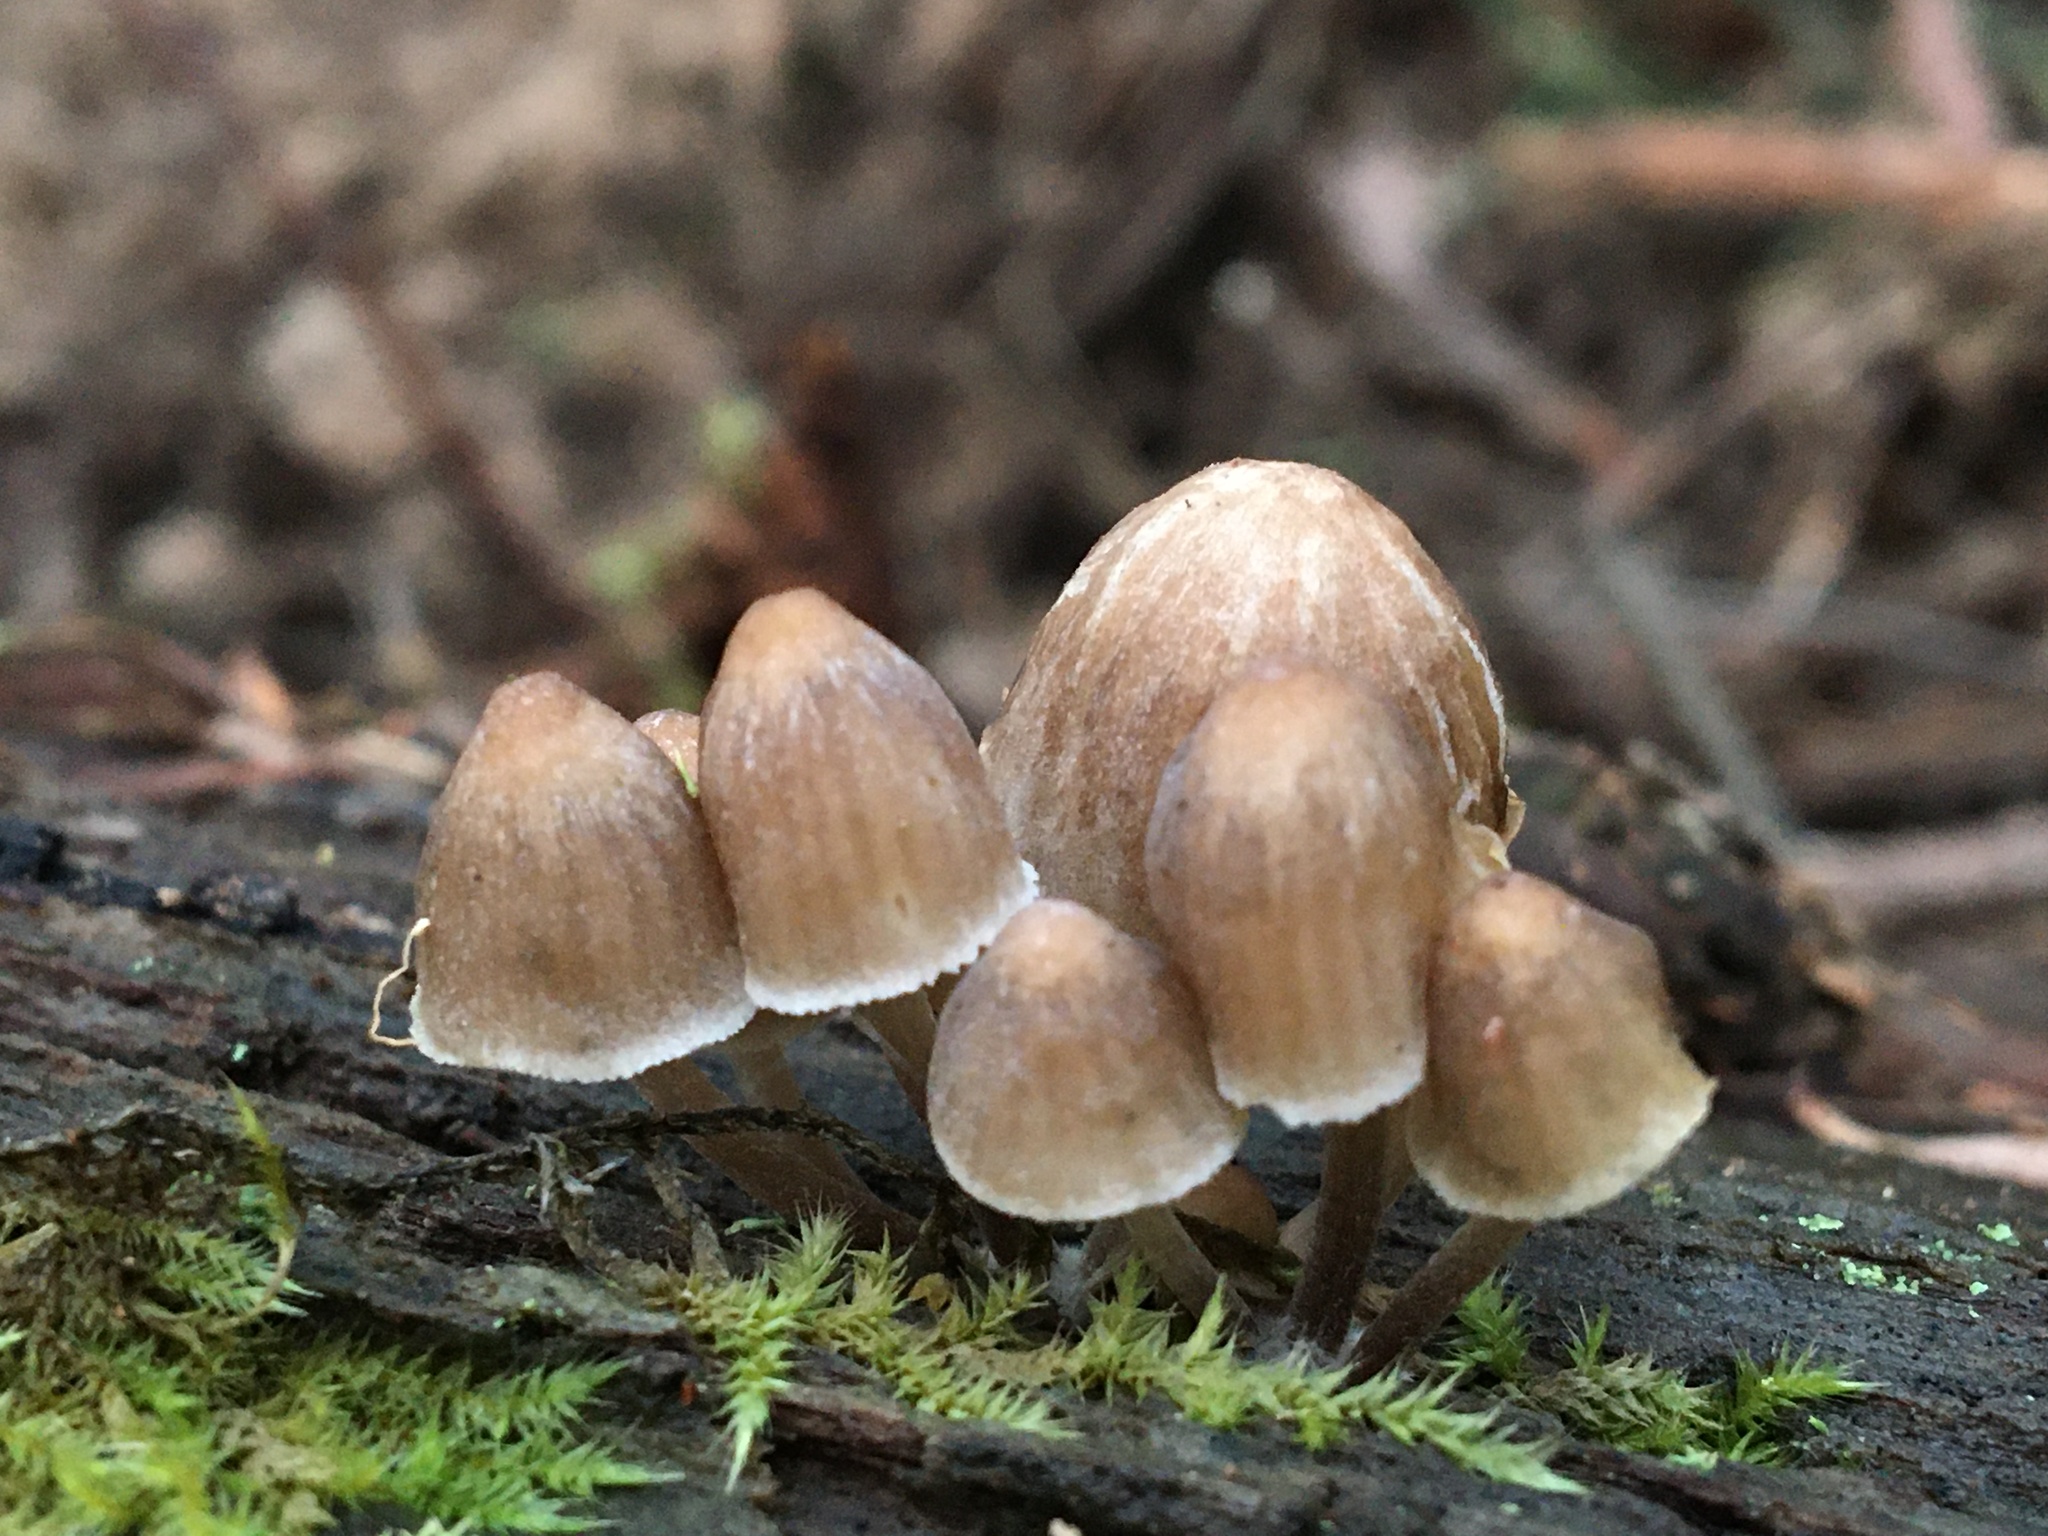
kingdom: Fungi
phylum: Basidiomycota
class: Agaricomycetes
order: Agaricales
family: Mycenaceae
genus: Mycena
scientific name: Mycena subgalericulata
